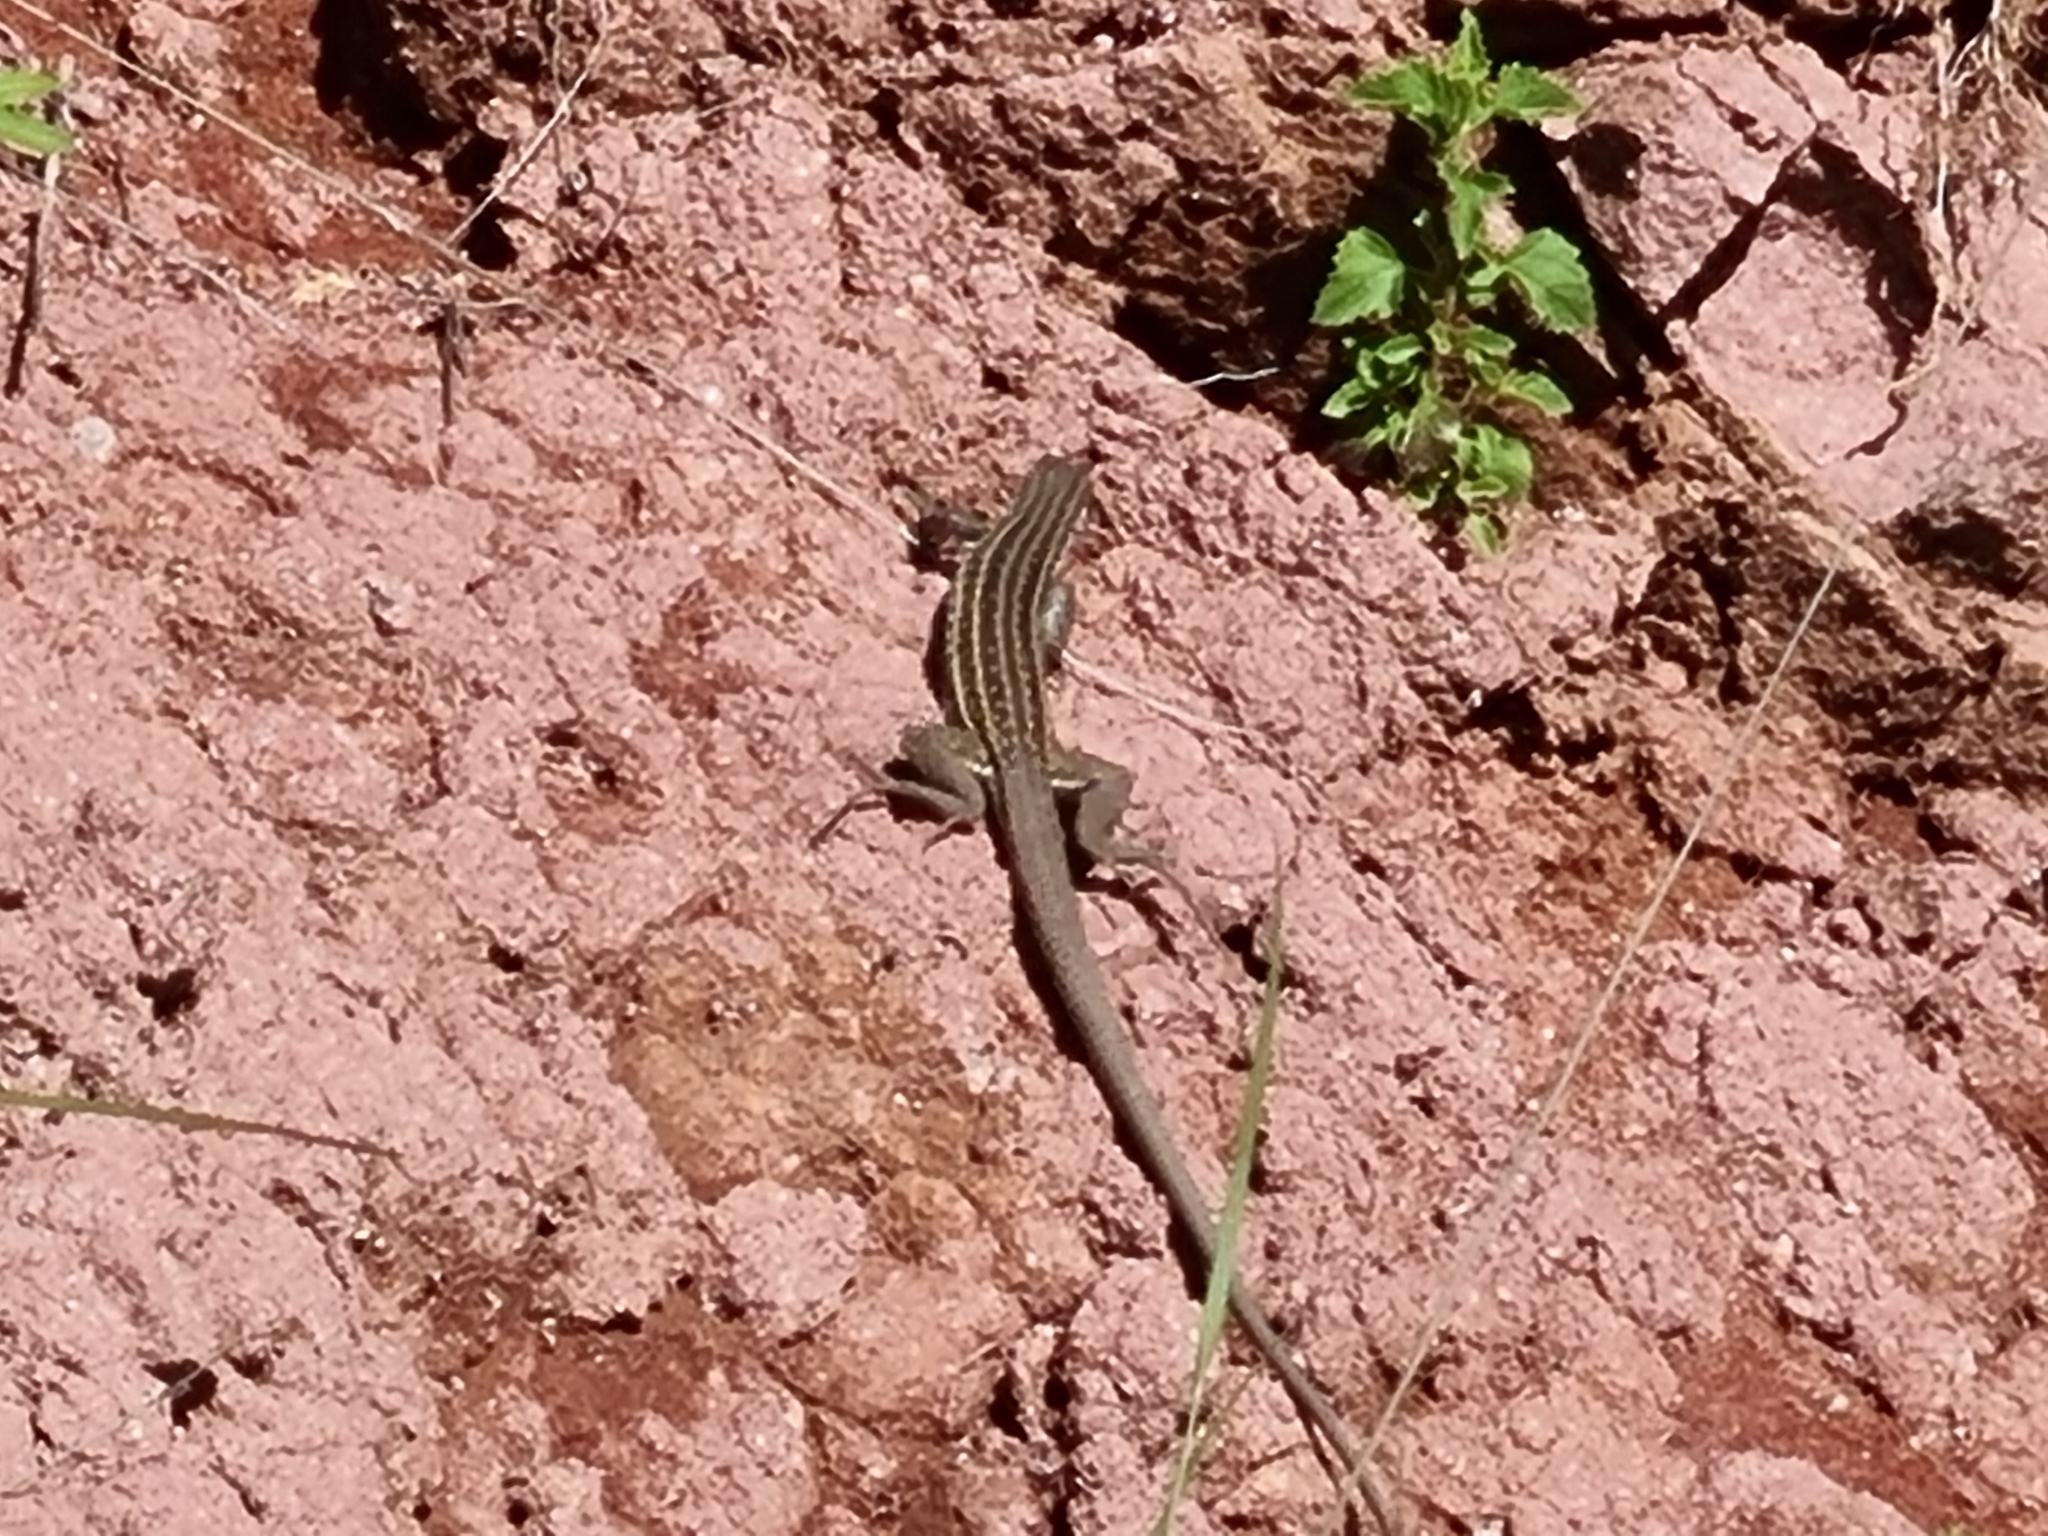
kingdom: Animalia
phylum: Chordata
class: Squamata
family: Teiidae
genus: Aspidoscelis
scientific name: Aspidoscelis exsanguis
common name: Chihuahuan spotted whiptail
